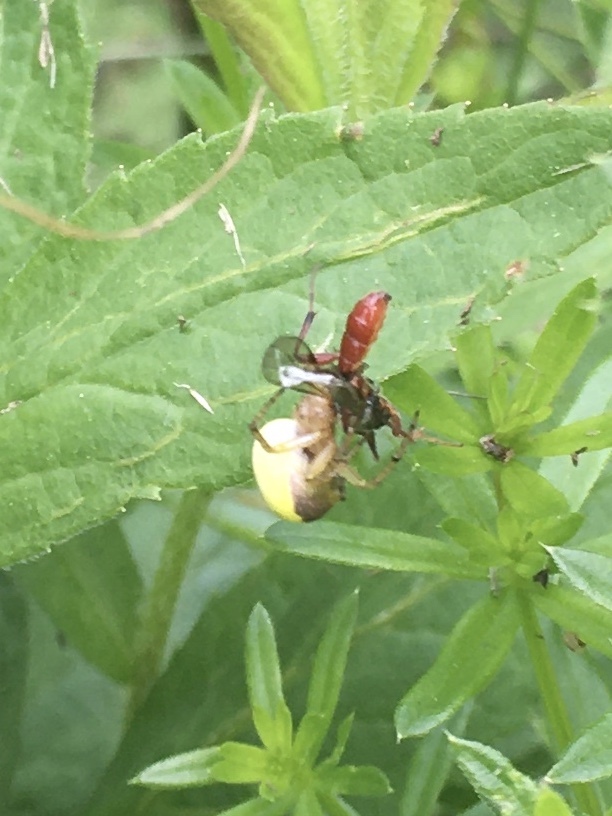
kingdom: Animalia
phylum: Arthropoda
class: Arachnida
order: Araneae
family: Araneidae
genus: Araniella
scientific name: Araniella displicata
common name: Sixspotted orb weaver
